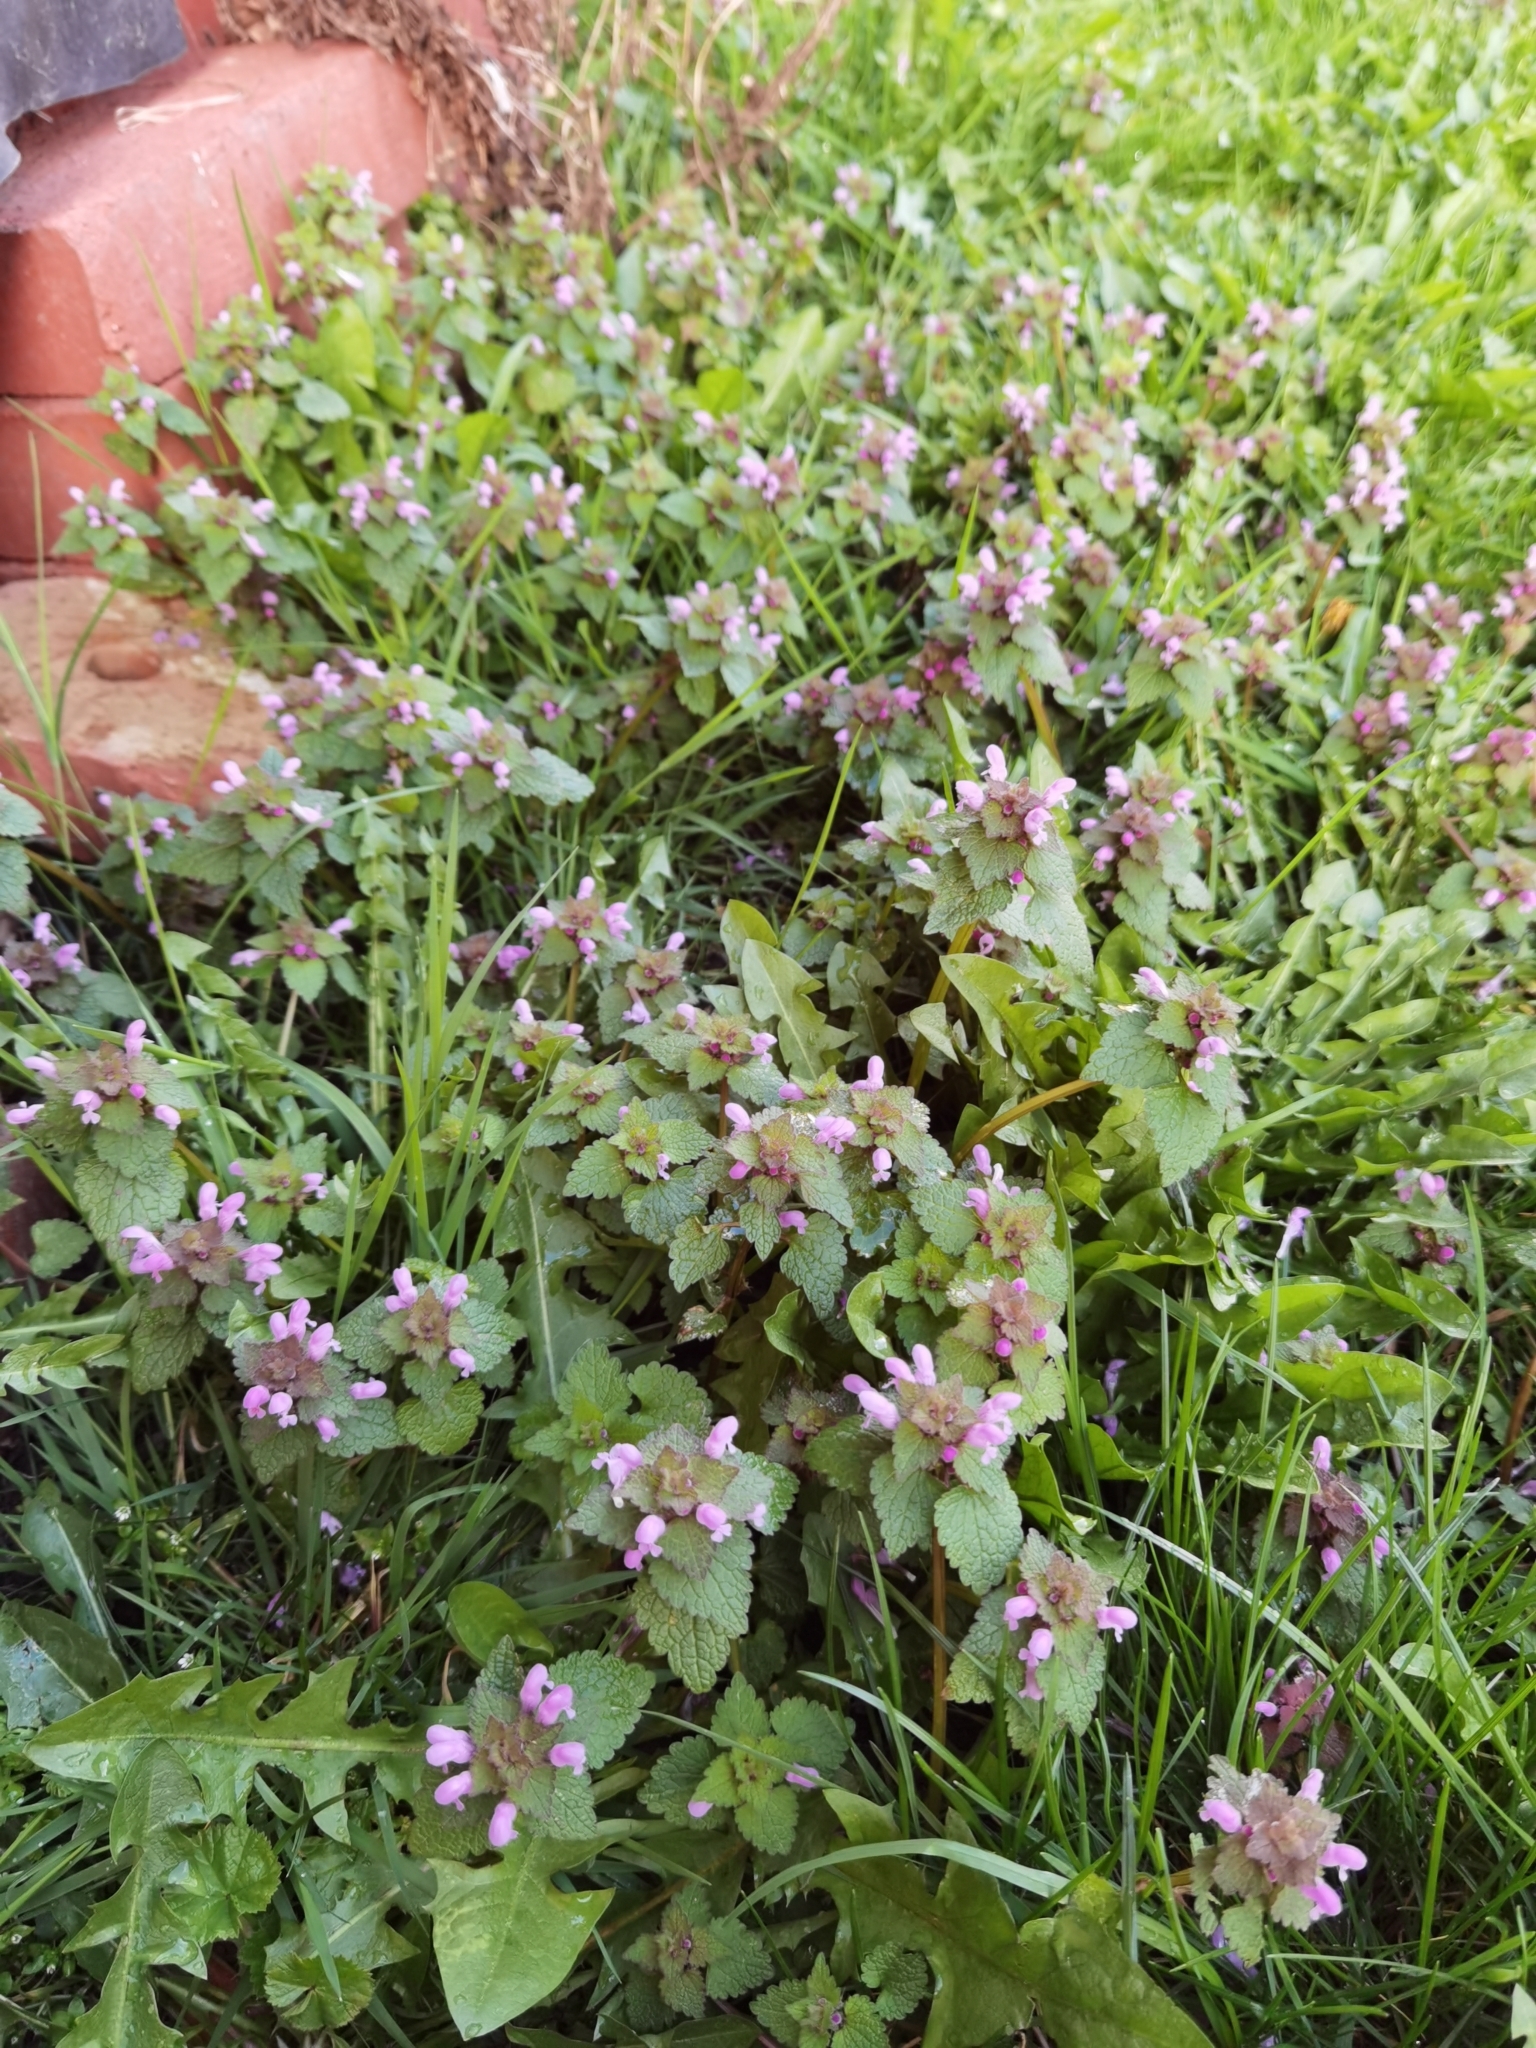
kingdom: Plantae
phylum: Tracheophyta
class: Magnoliopsida
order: Lamiales
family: Lamiaceae
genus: Lamium
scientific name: Lamium purpureum
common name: Red dead-nettle
